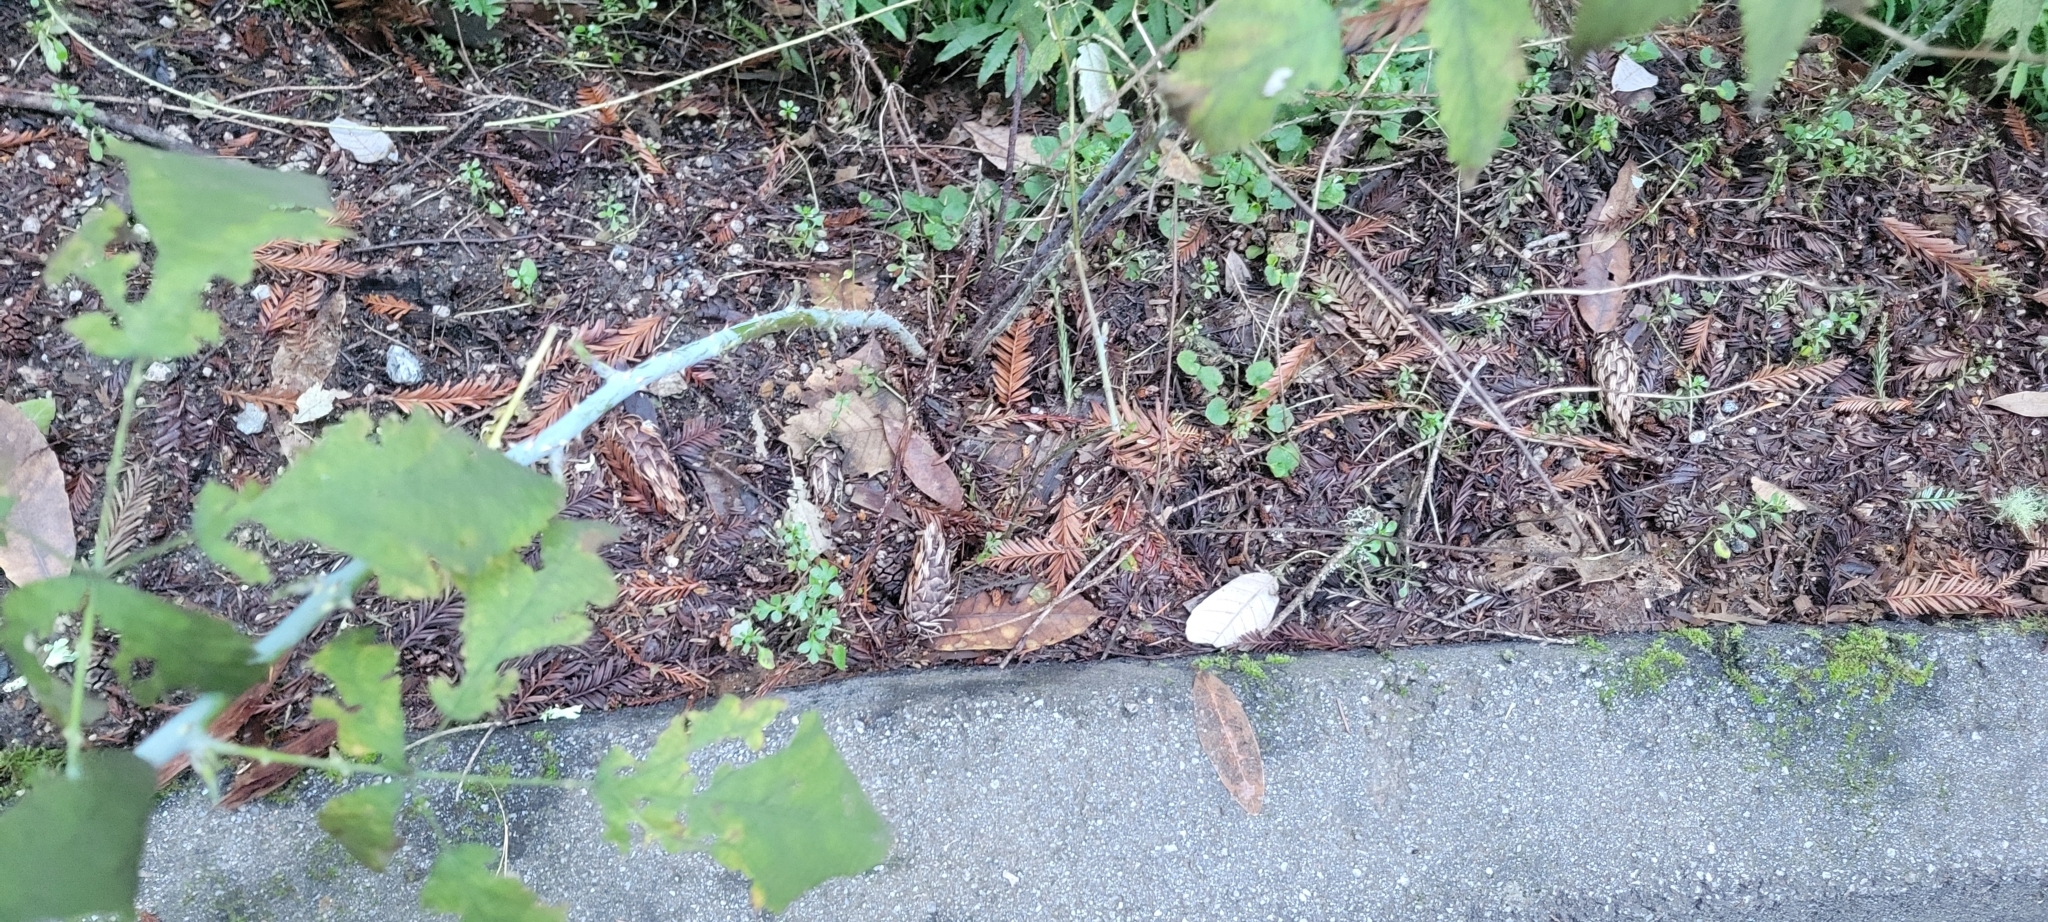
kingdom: Plantae
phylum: Tracheophyta
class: Magnoliopsida
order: Rosales
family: Rosaceae
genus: Rubus
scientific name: Rubus leucodermis
